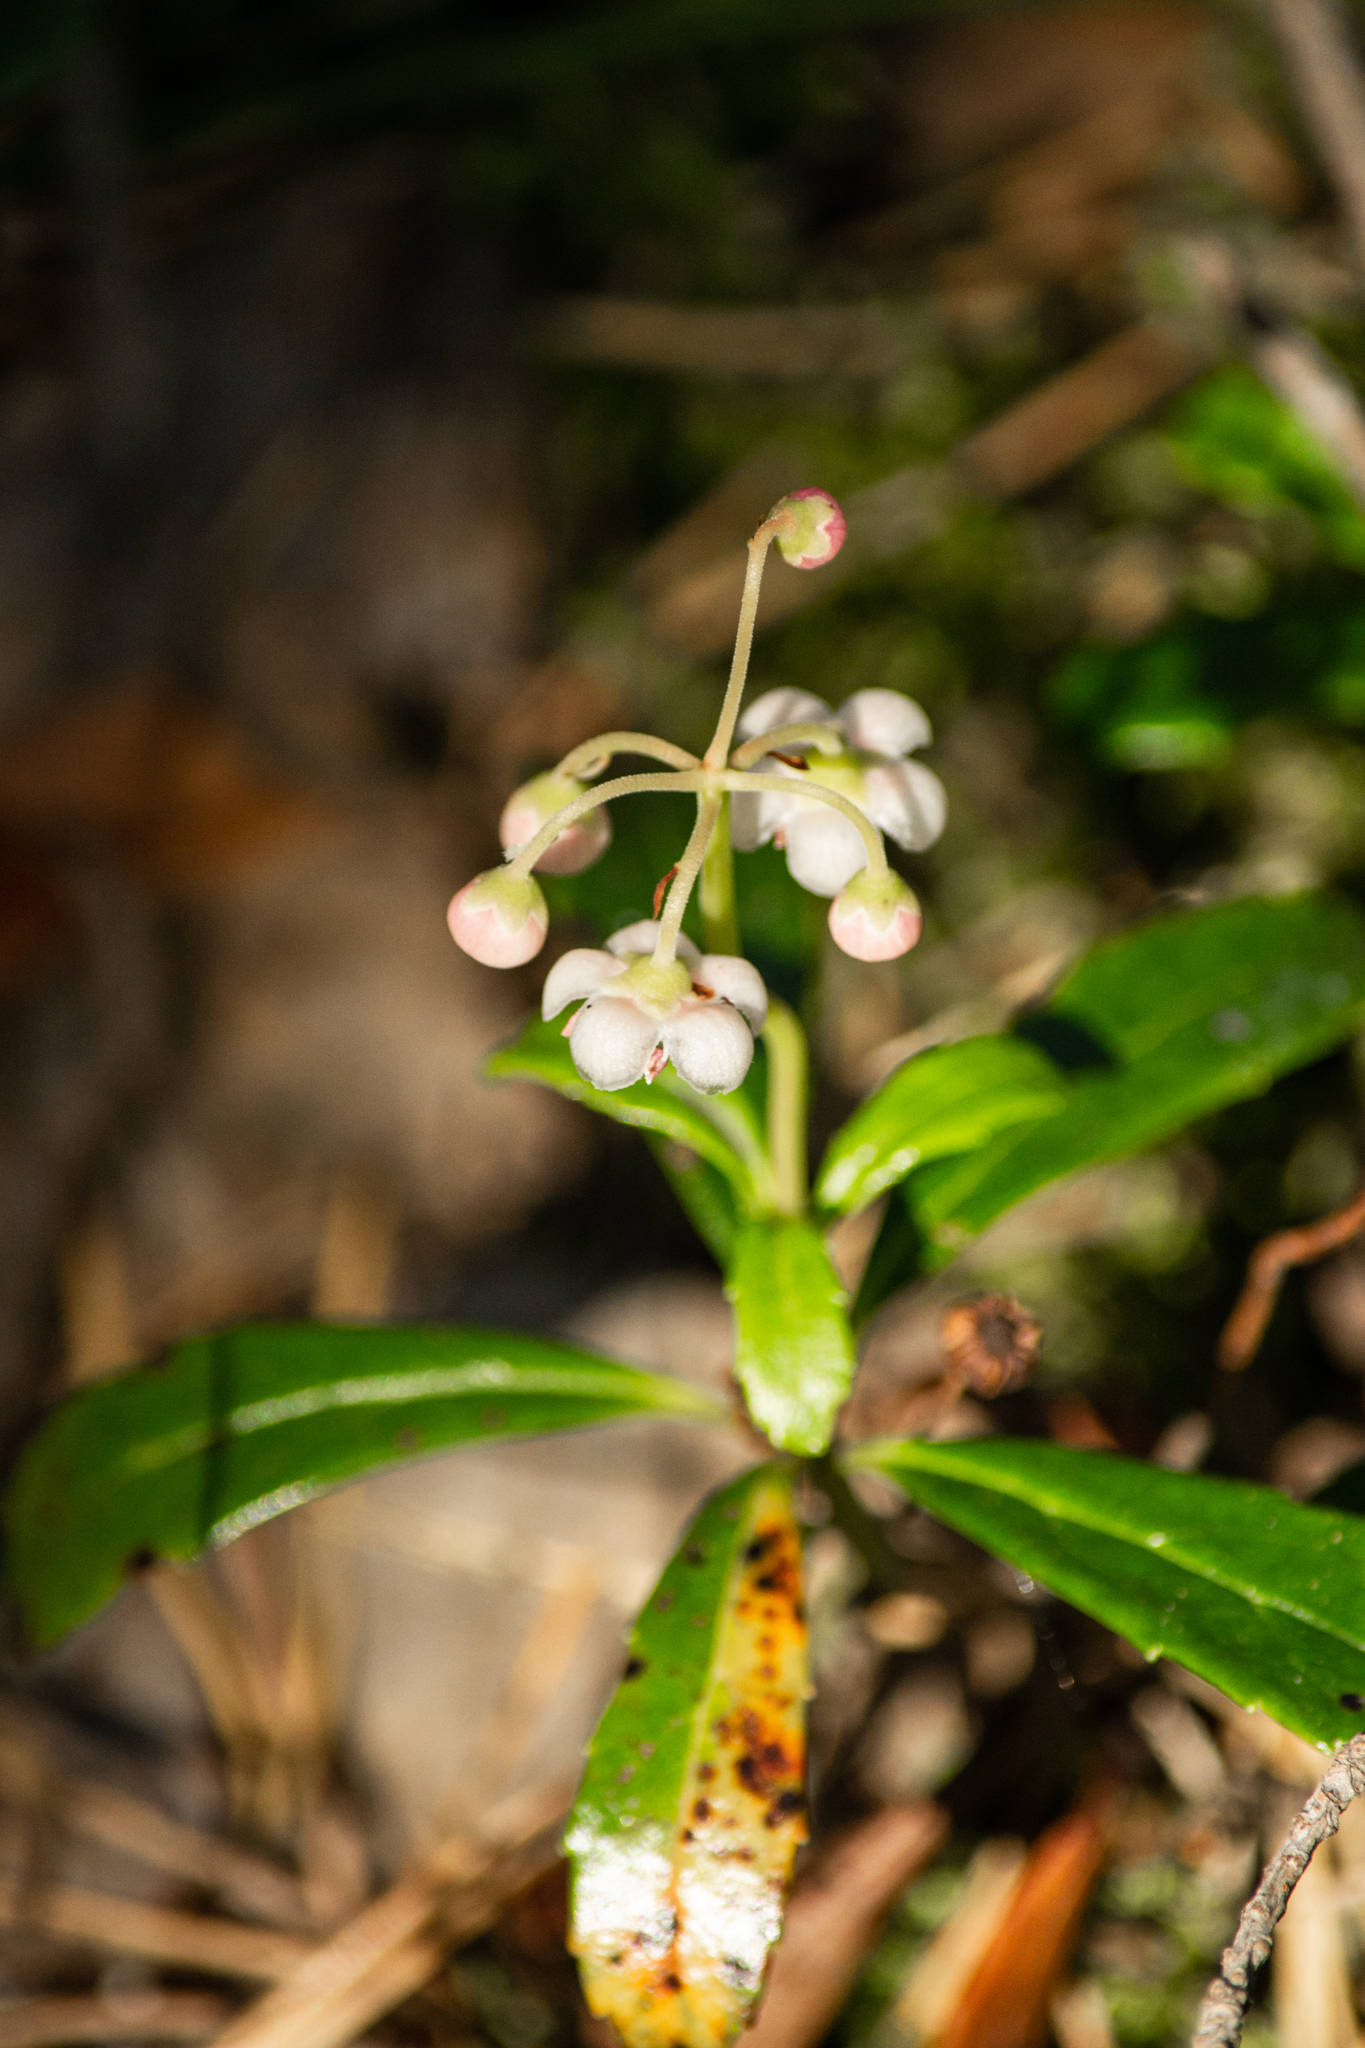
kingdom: Plantae
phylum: Tracheophyta
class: Magnoliopsida
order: Ericales
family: Ericaceae
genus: Chimaphila
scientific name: Chimaphila umbellata
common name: Pipsissewa
